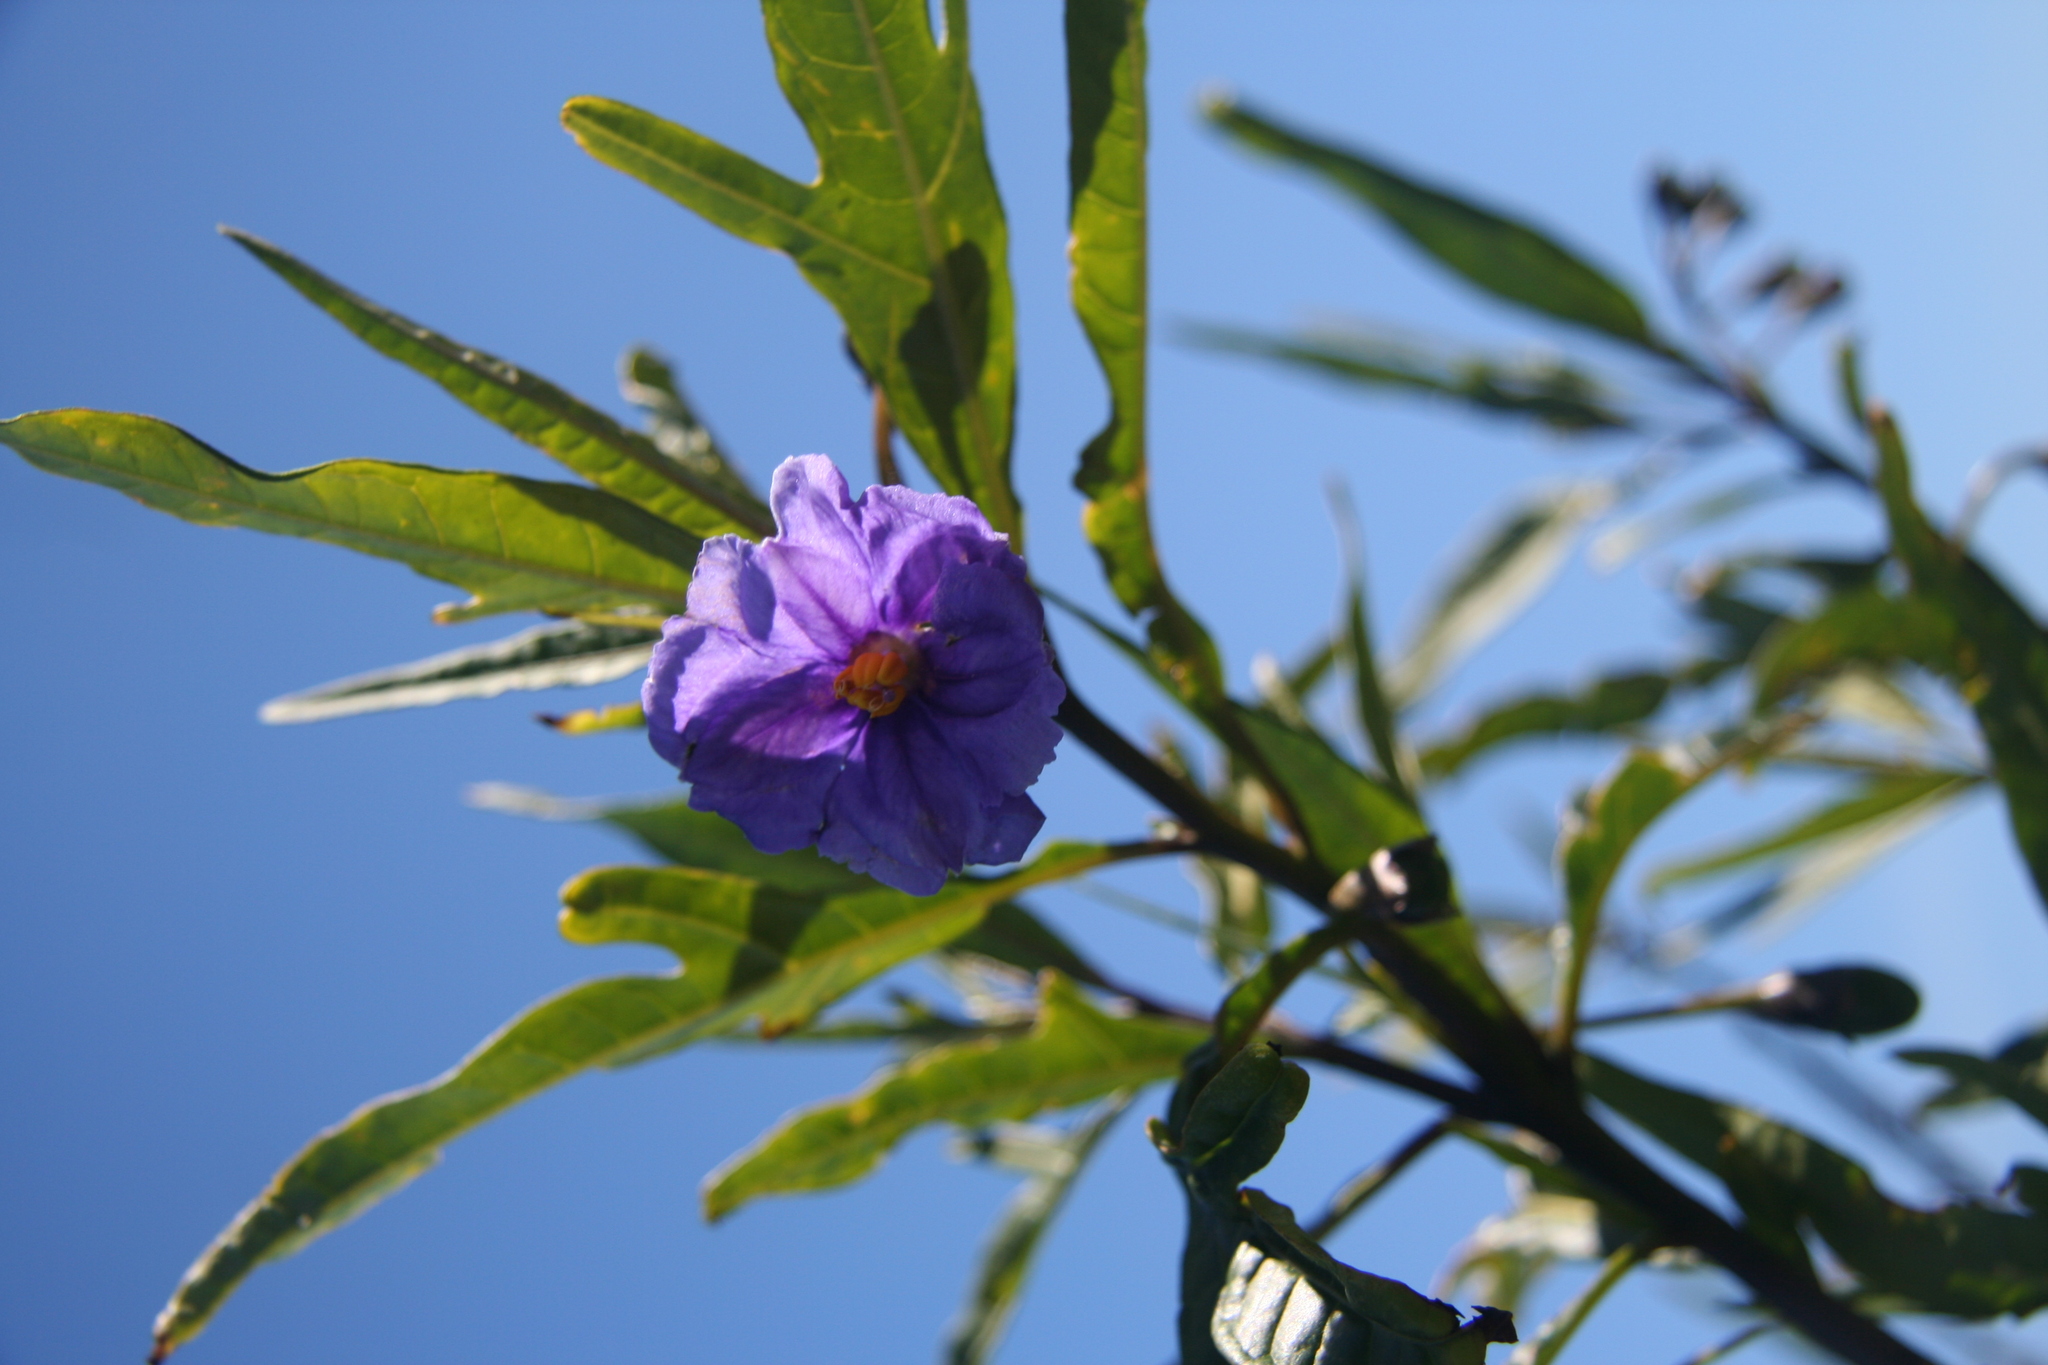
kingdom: Plantae
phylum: Tracheophyta
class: Magnoliopsida
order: Solanales
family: Solanaceae
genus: Solanum
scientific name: Solanum laciniatum
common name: Kangaroo-apple
